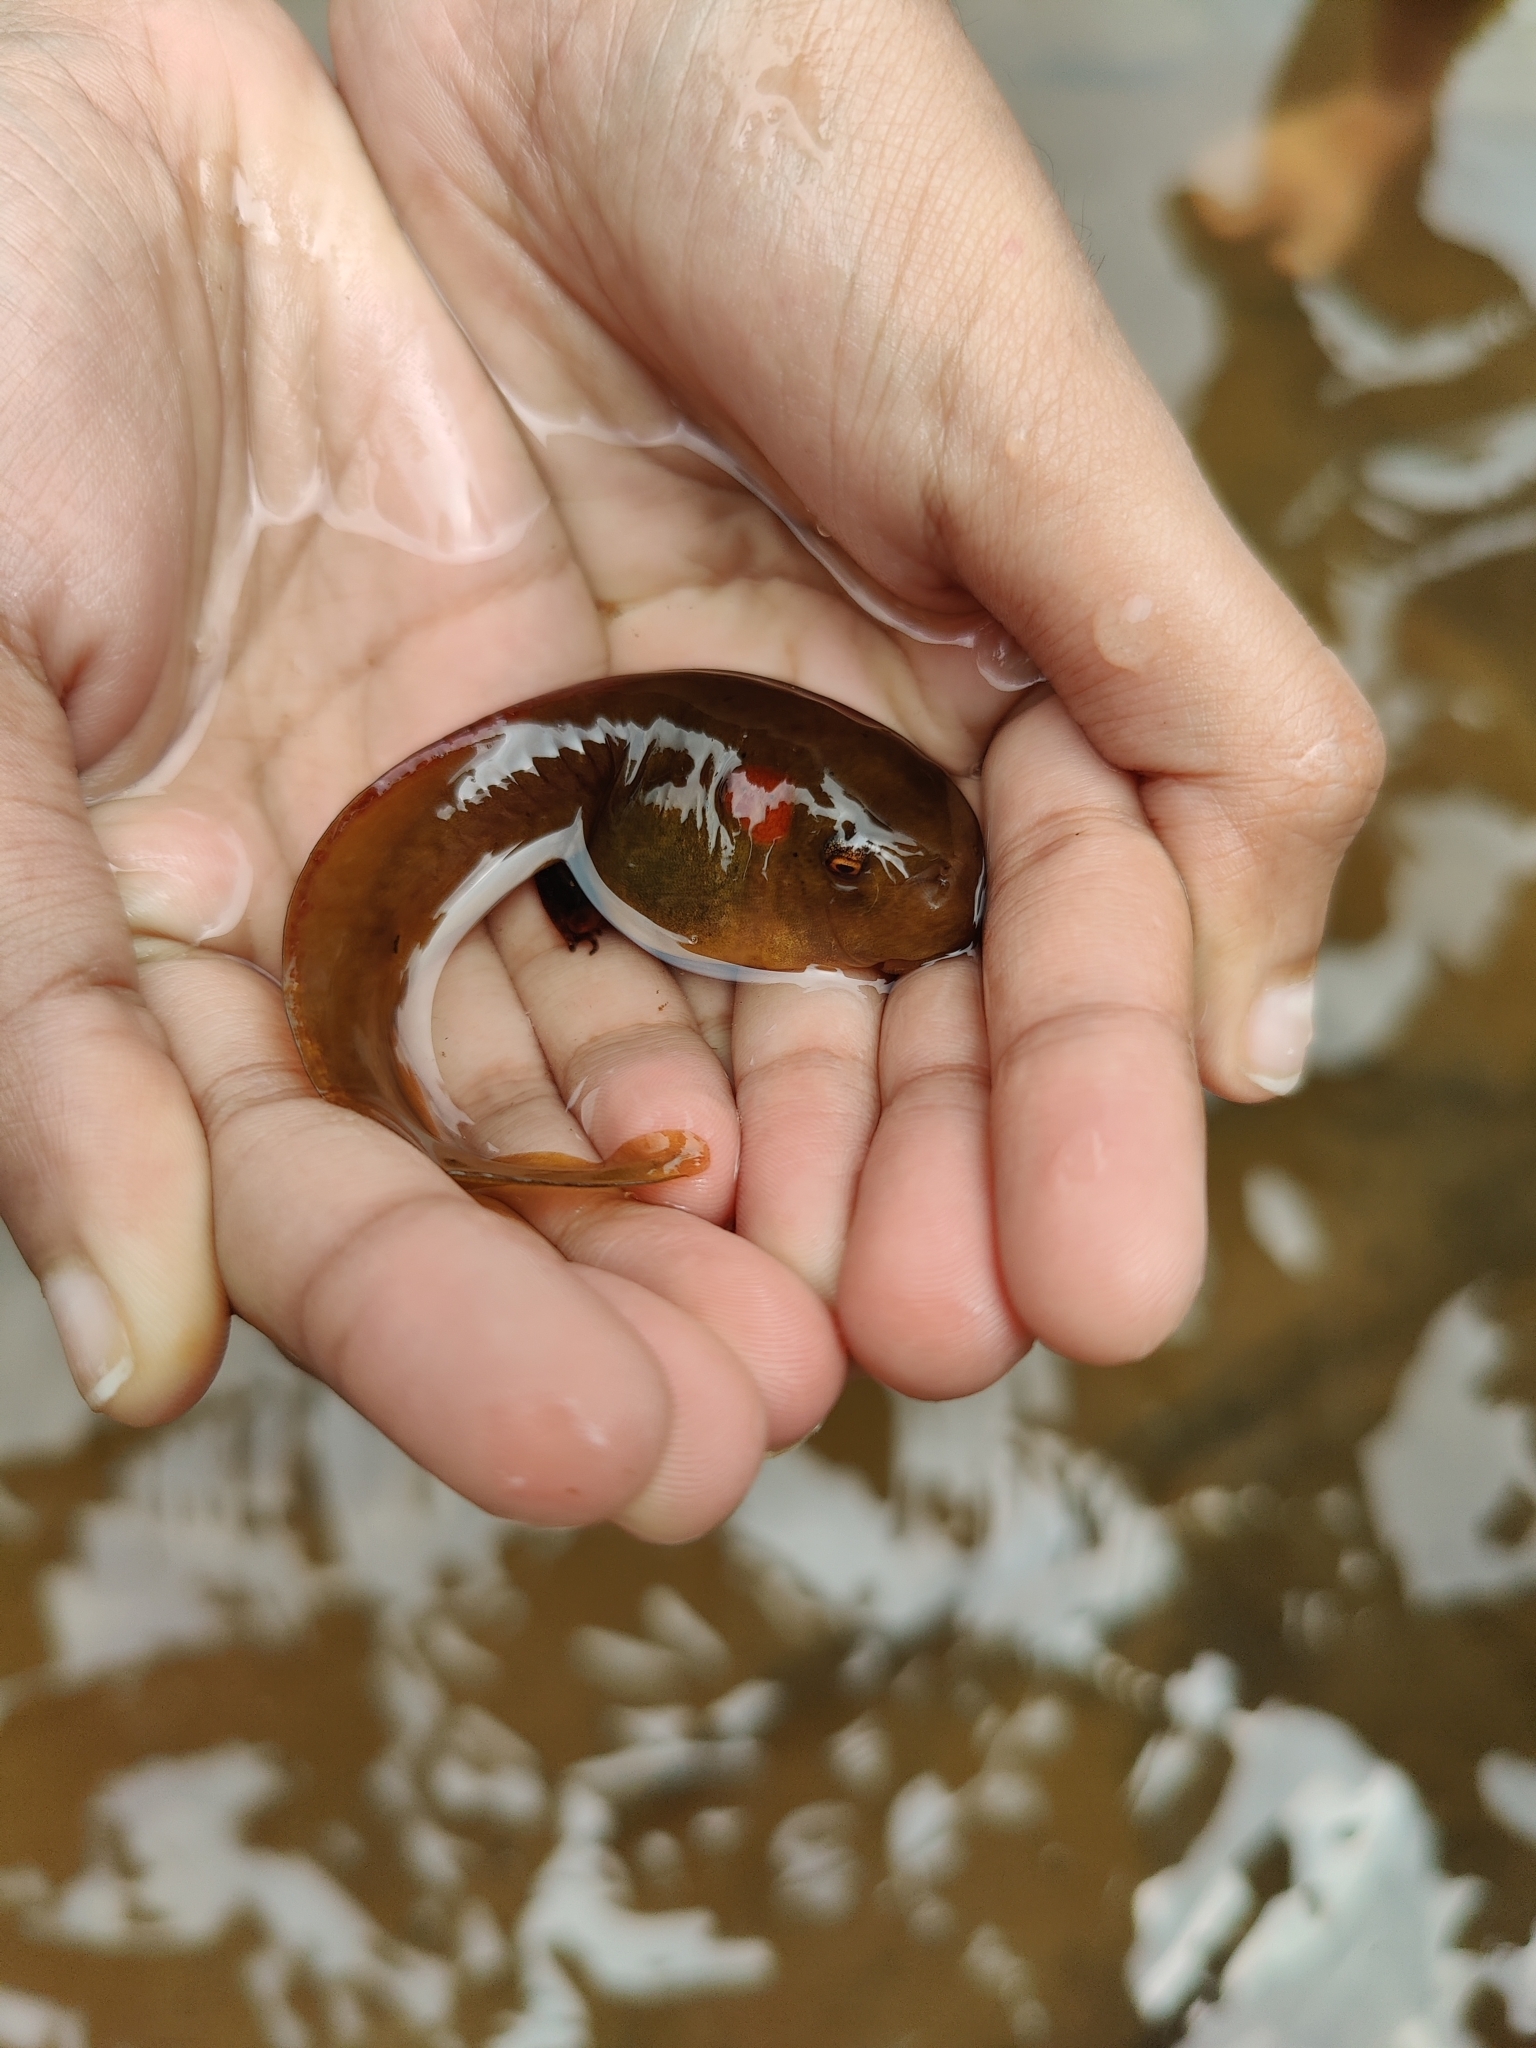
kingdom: Animalia
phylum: Chordata
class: Amphibia
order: Anura
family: Ranidae
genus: Clinotarsus
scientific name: Clinotarsus curtipes
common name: Bicoloured frog
